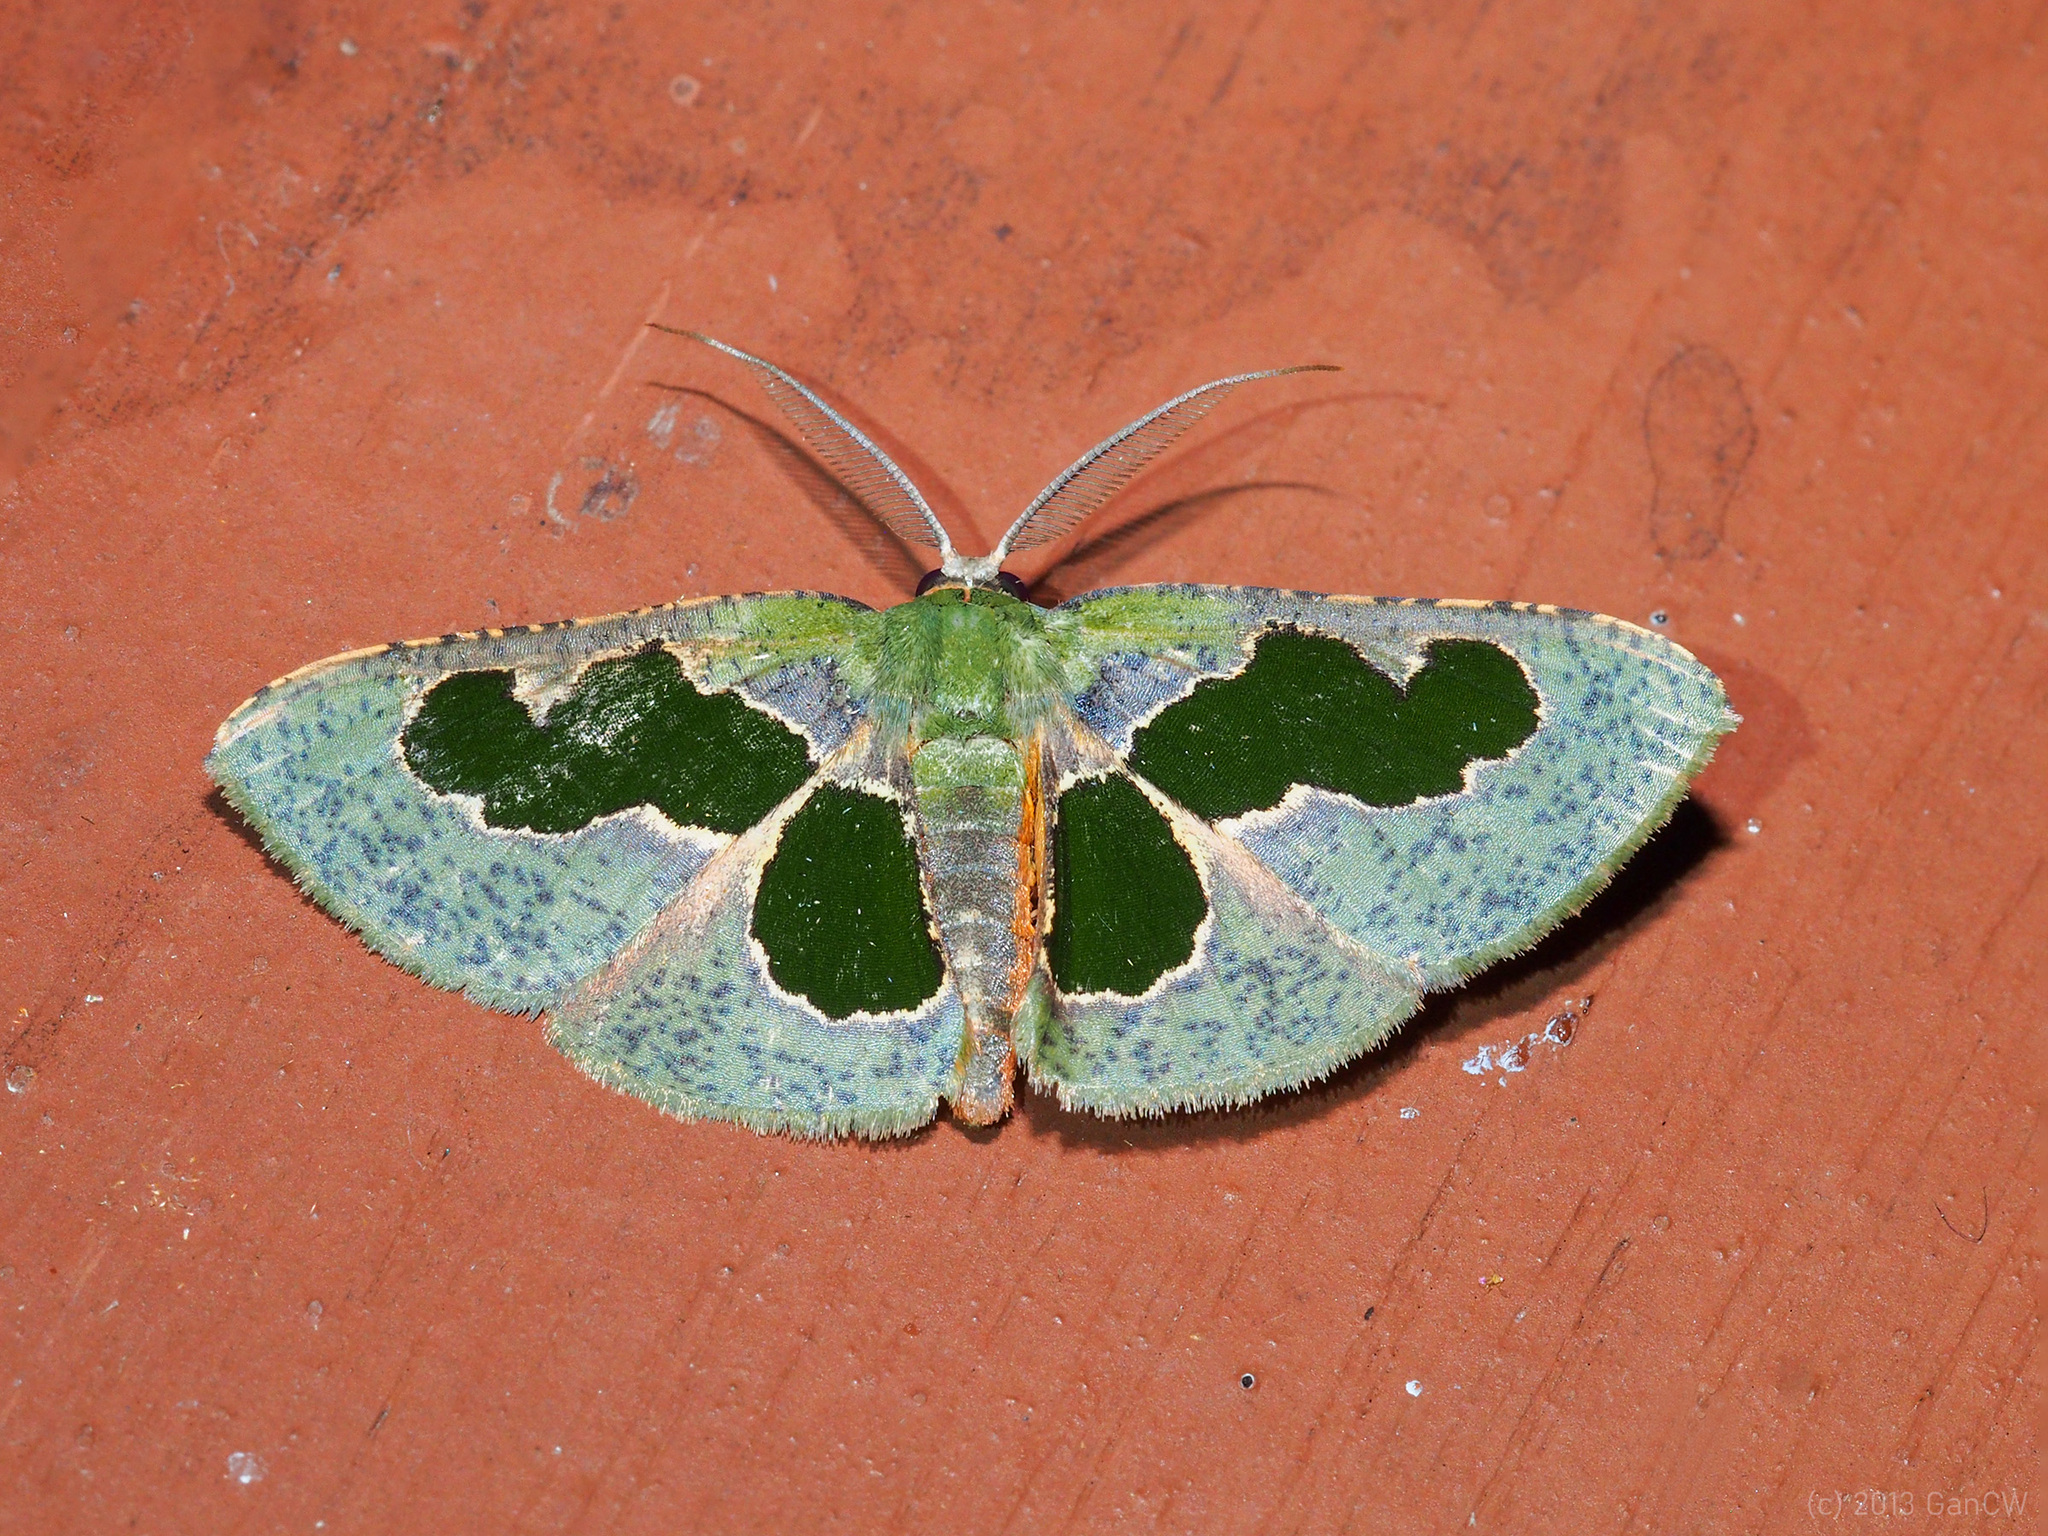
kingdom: Animalia
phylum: Arthropoda
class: Insecta
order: Lepidoptera
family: Geometridae
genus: Celenna
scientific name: Celenna
